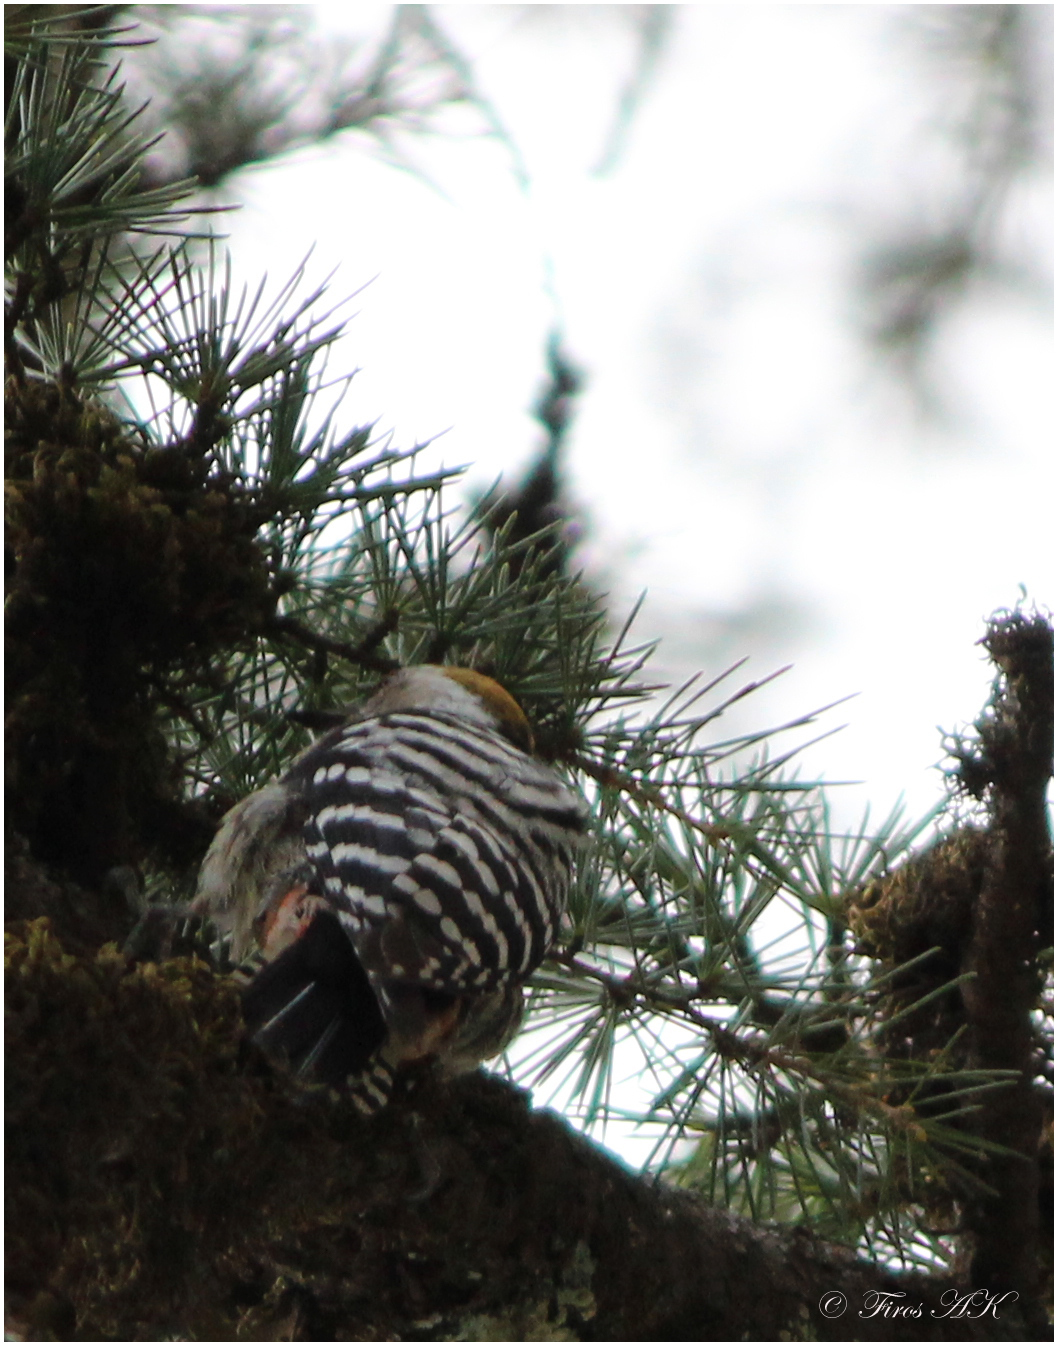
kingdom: Animalia
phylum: Chordata
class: Aves
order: Piciformes
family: Picidae
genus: Dendrocoptes
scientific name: Dendrocoptes auriceps
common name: Brown-fronted woodpecker
